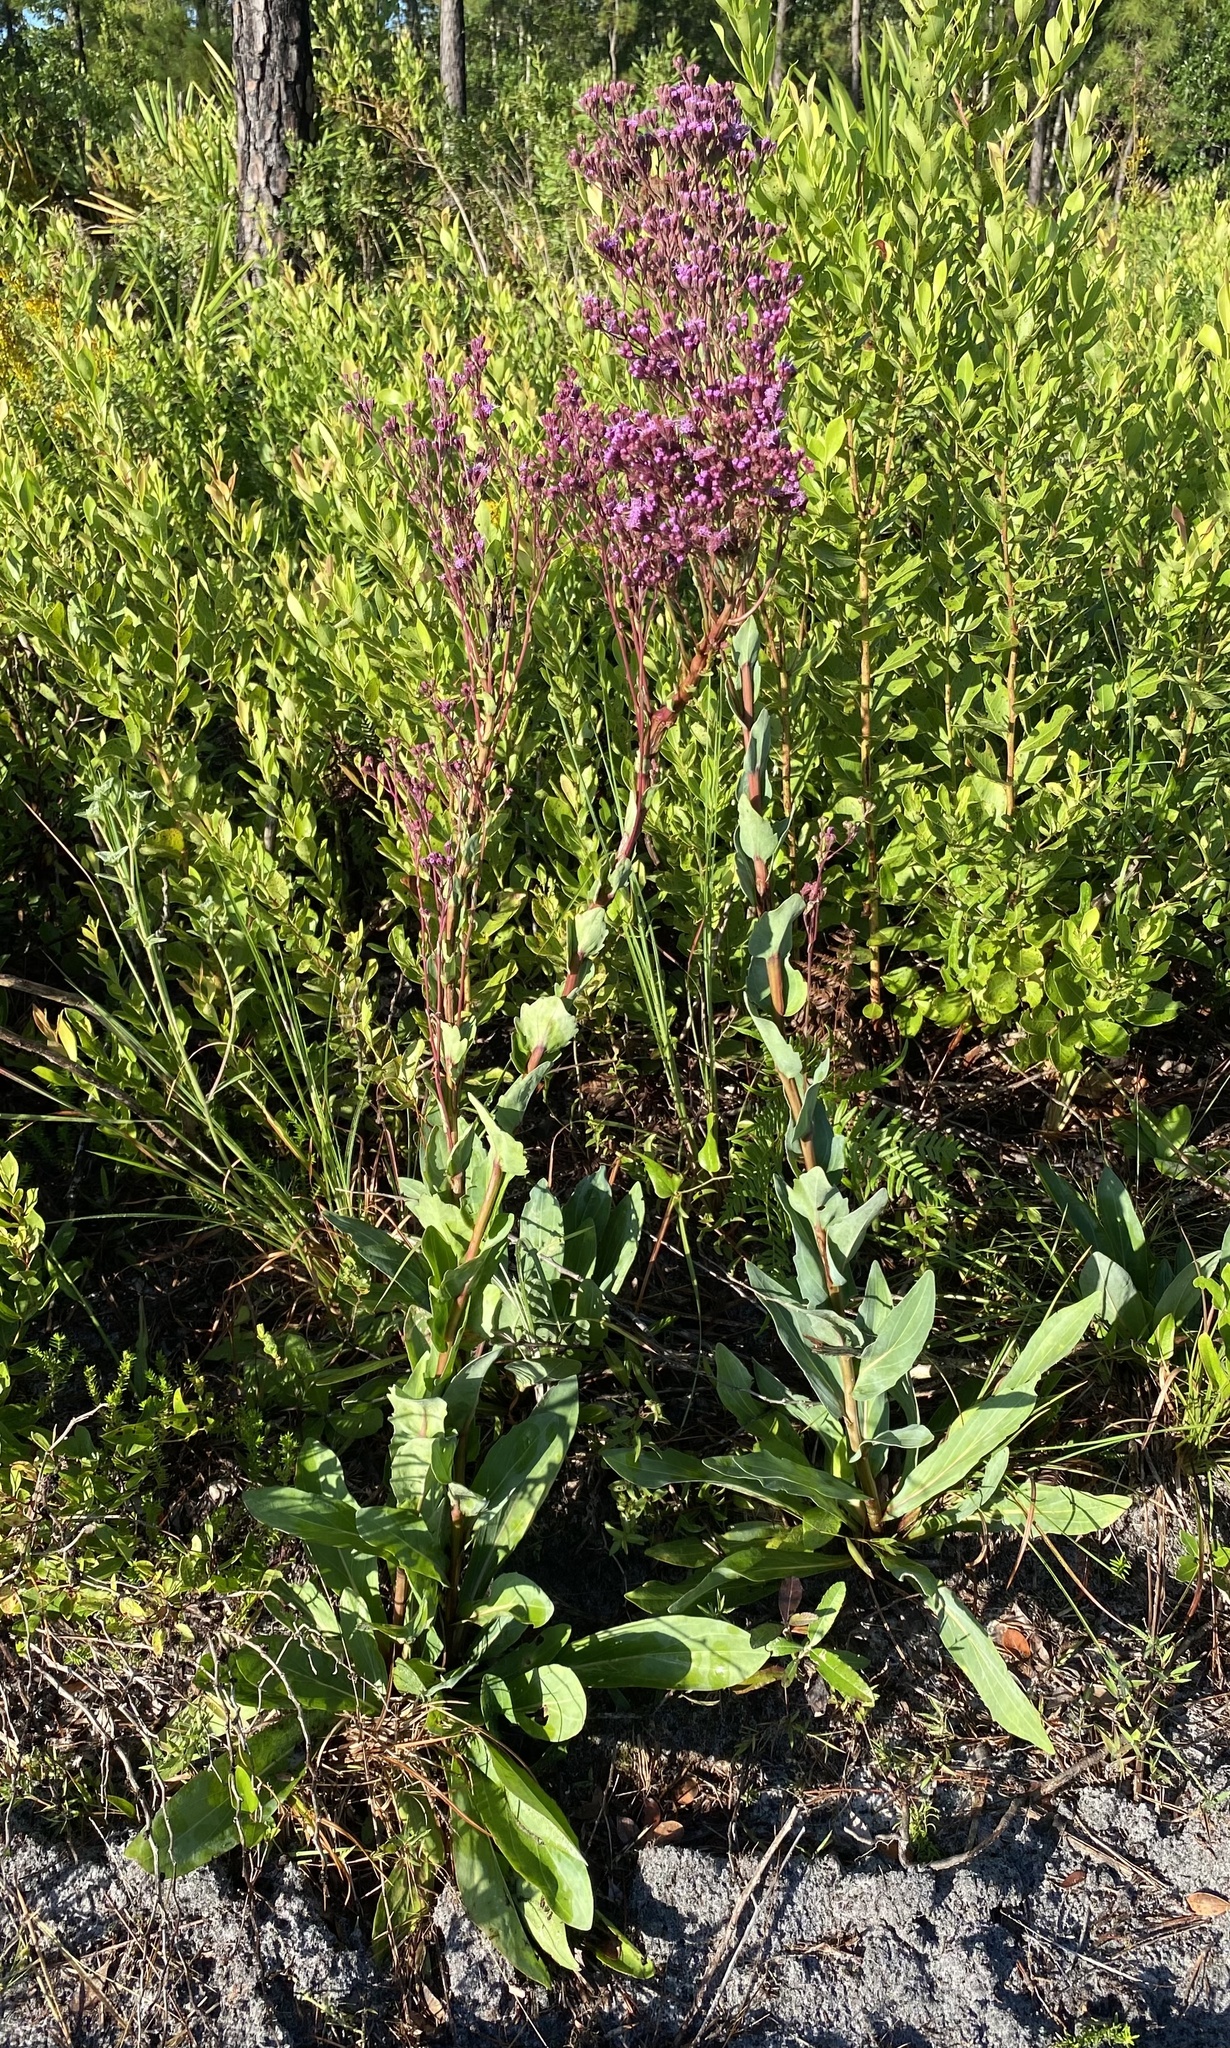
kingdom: Plantae
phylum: Tracheophyta
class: Magnoliopsida
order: Asterales
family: Asteraceae
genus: Carphephorus
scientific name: Carphephorus odoratissimus
